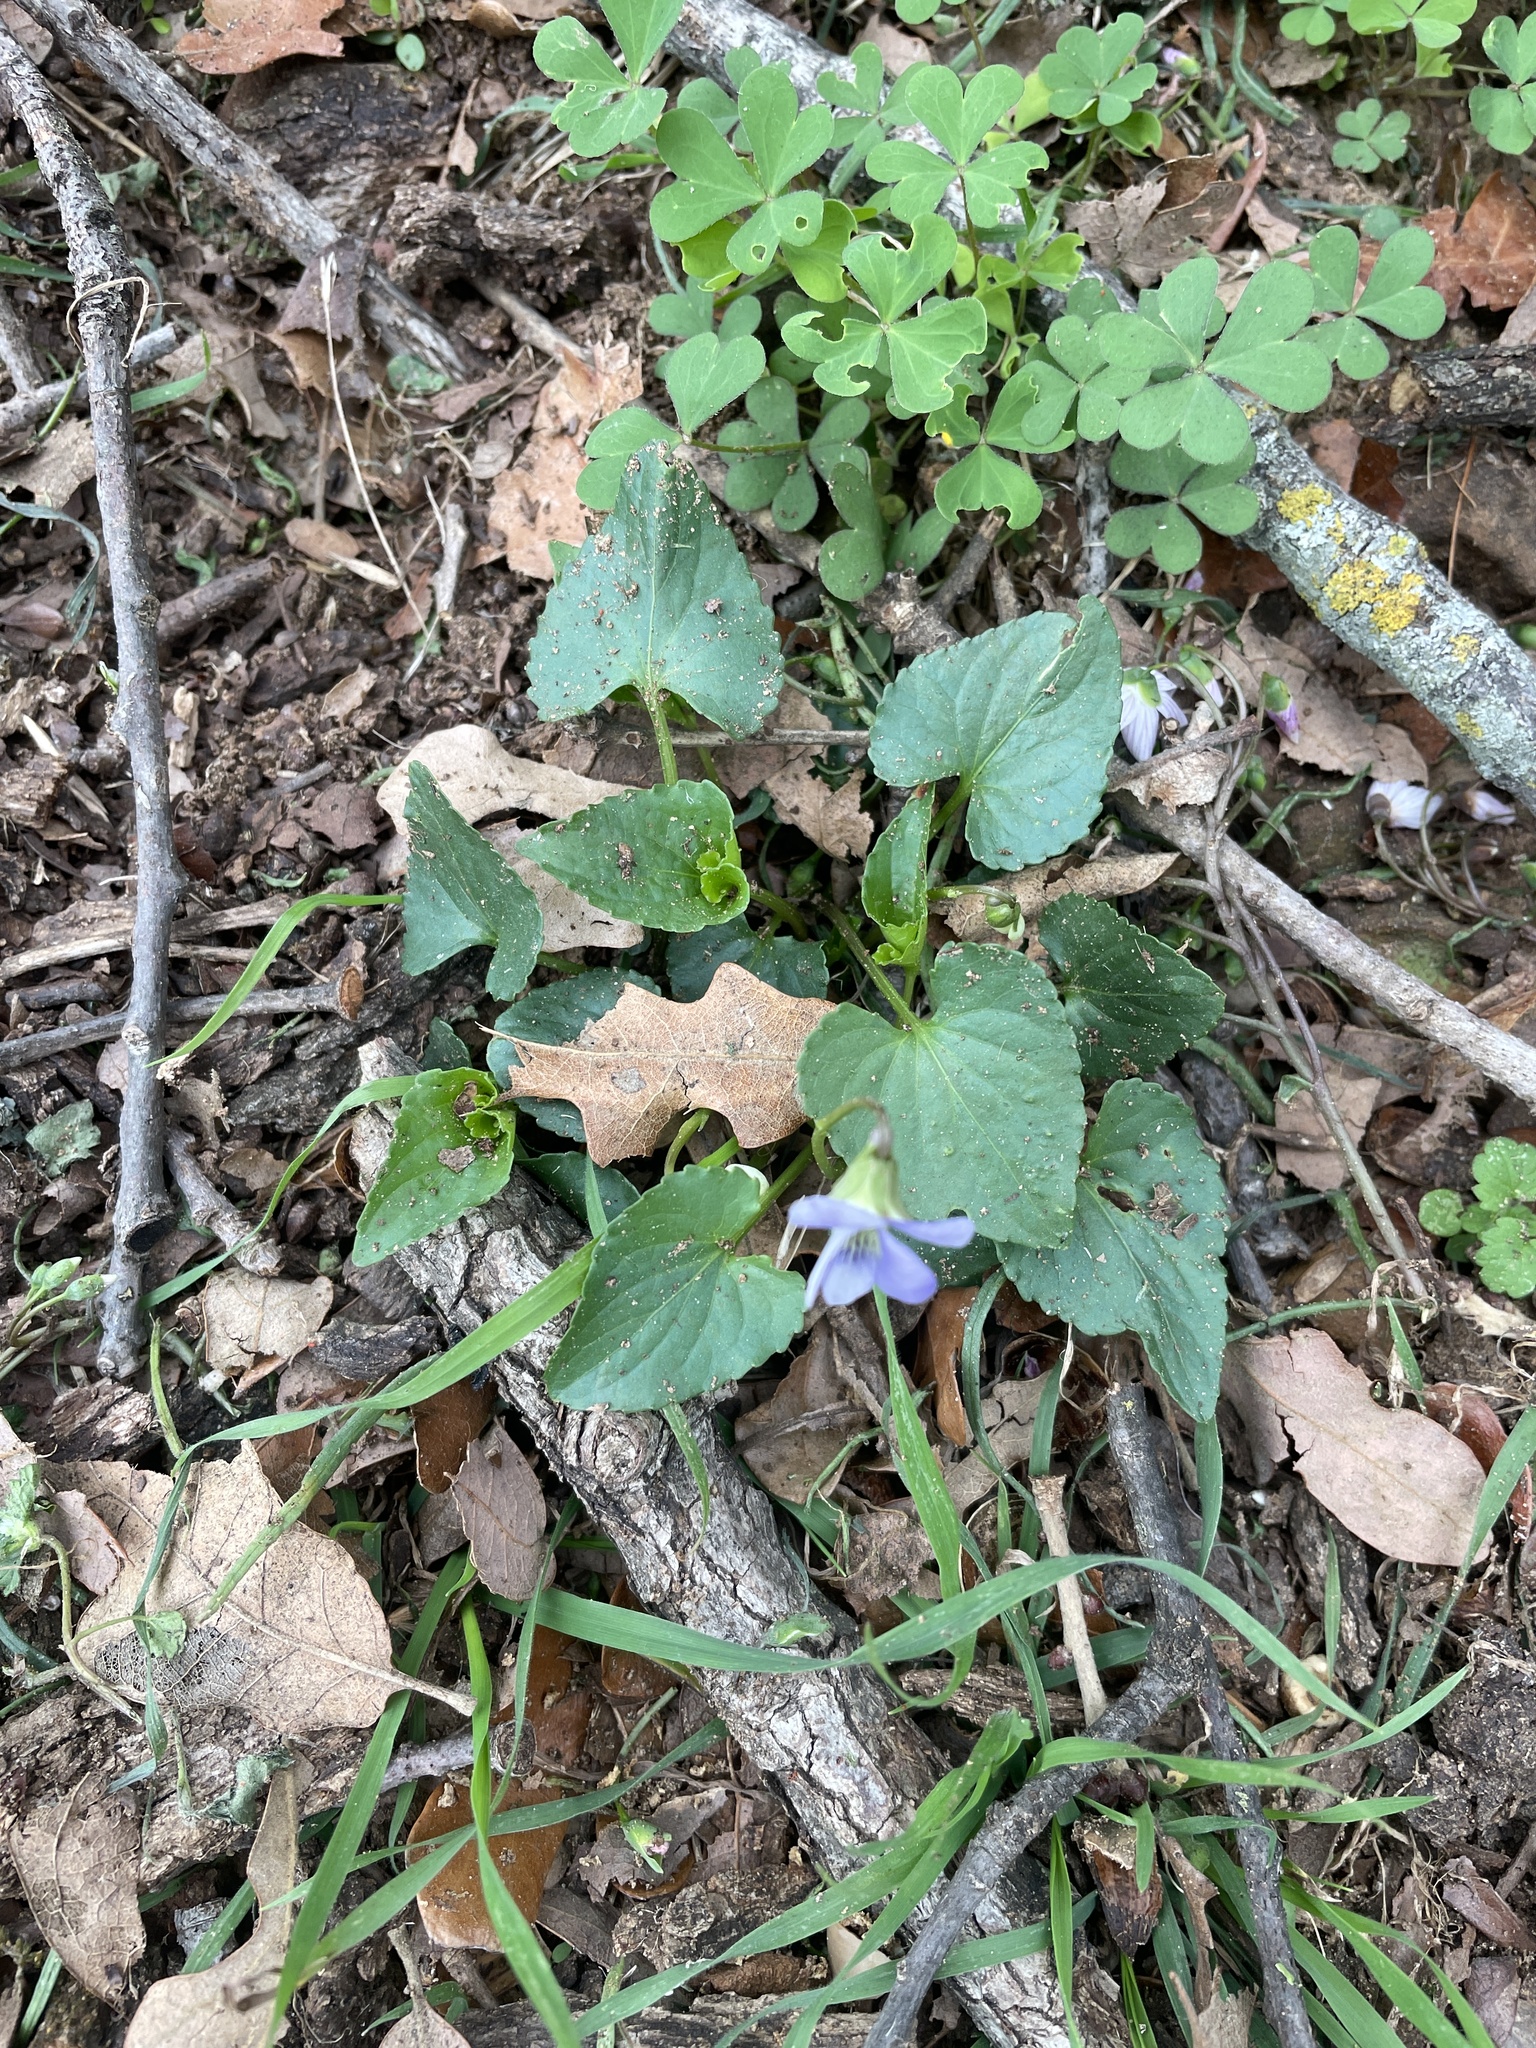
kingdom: Plantae
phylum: Tracheophyta
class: Magnoliopsida
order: Malpighiales
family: Violaceae
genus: Viola
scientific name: Viola missouriensis
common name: Missouri violet
